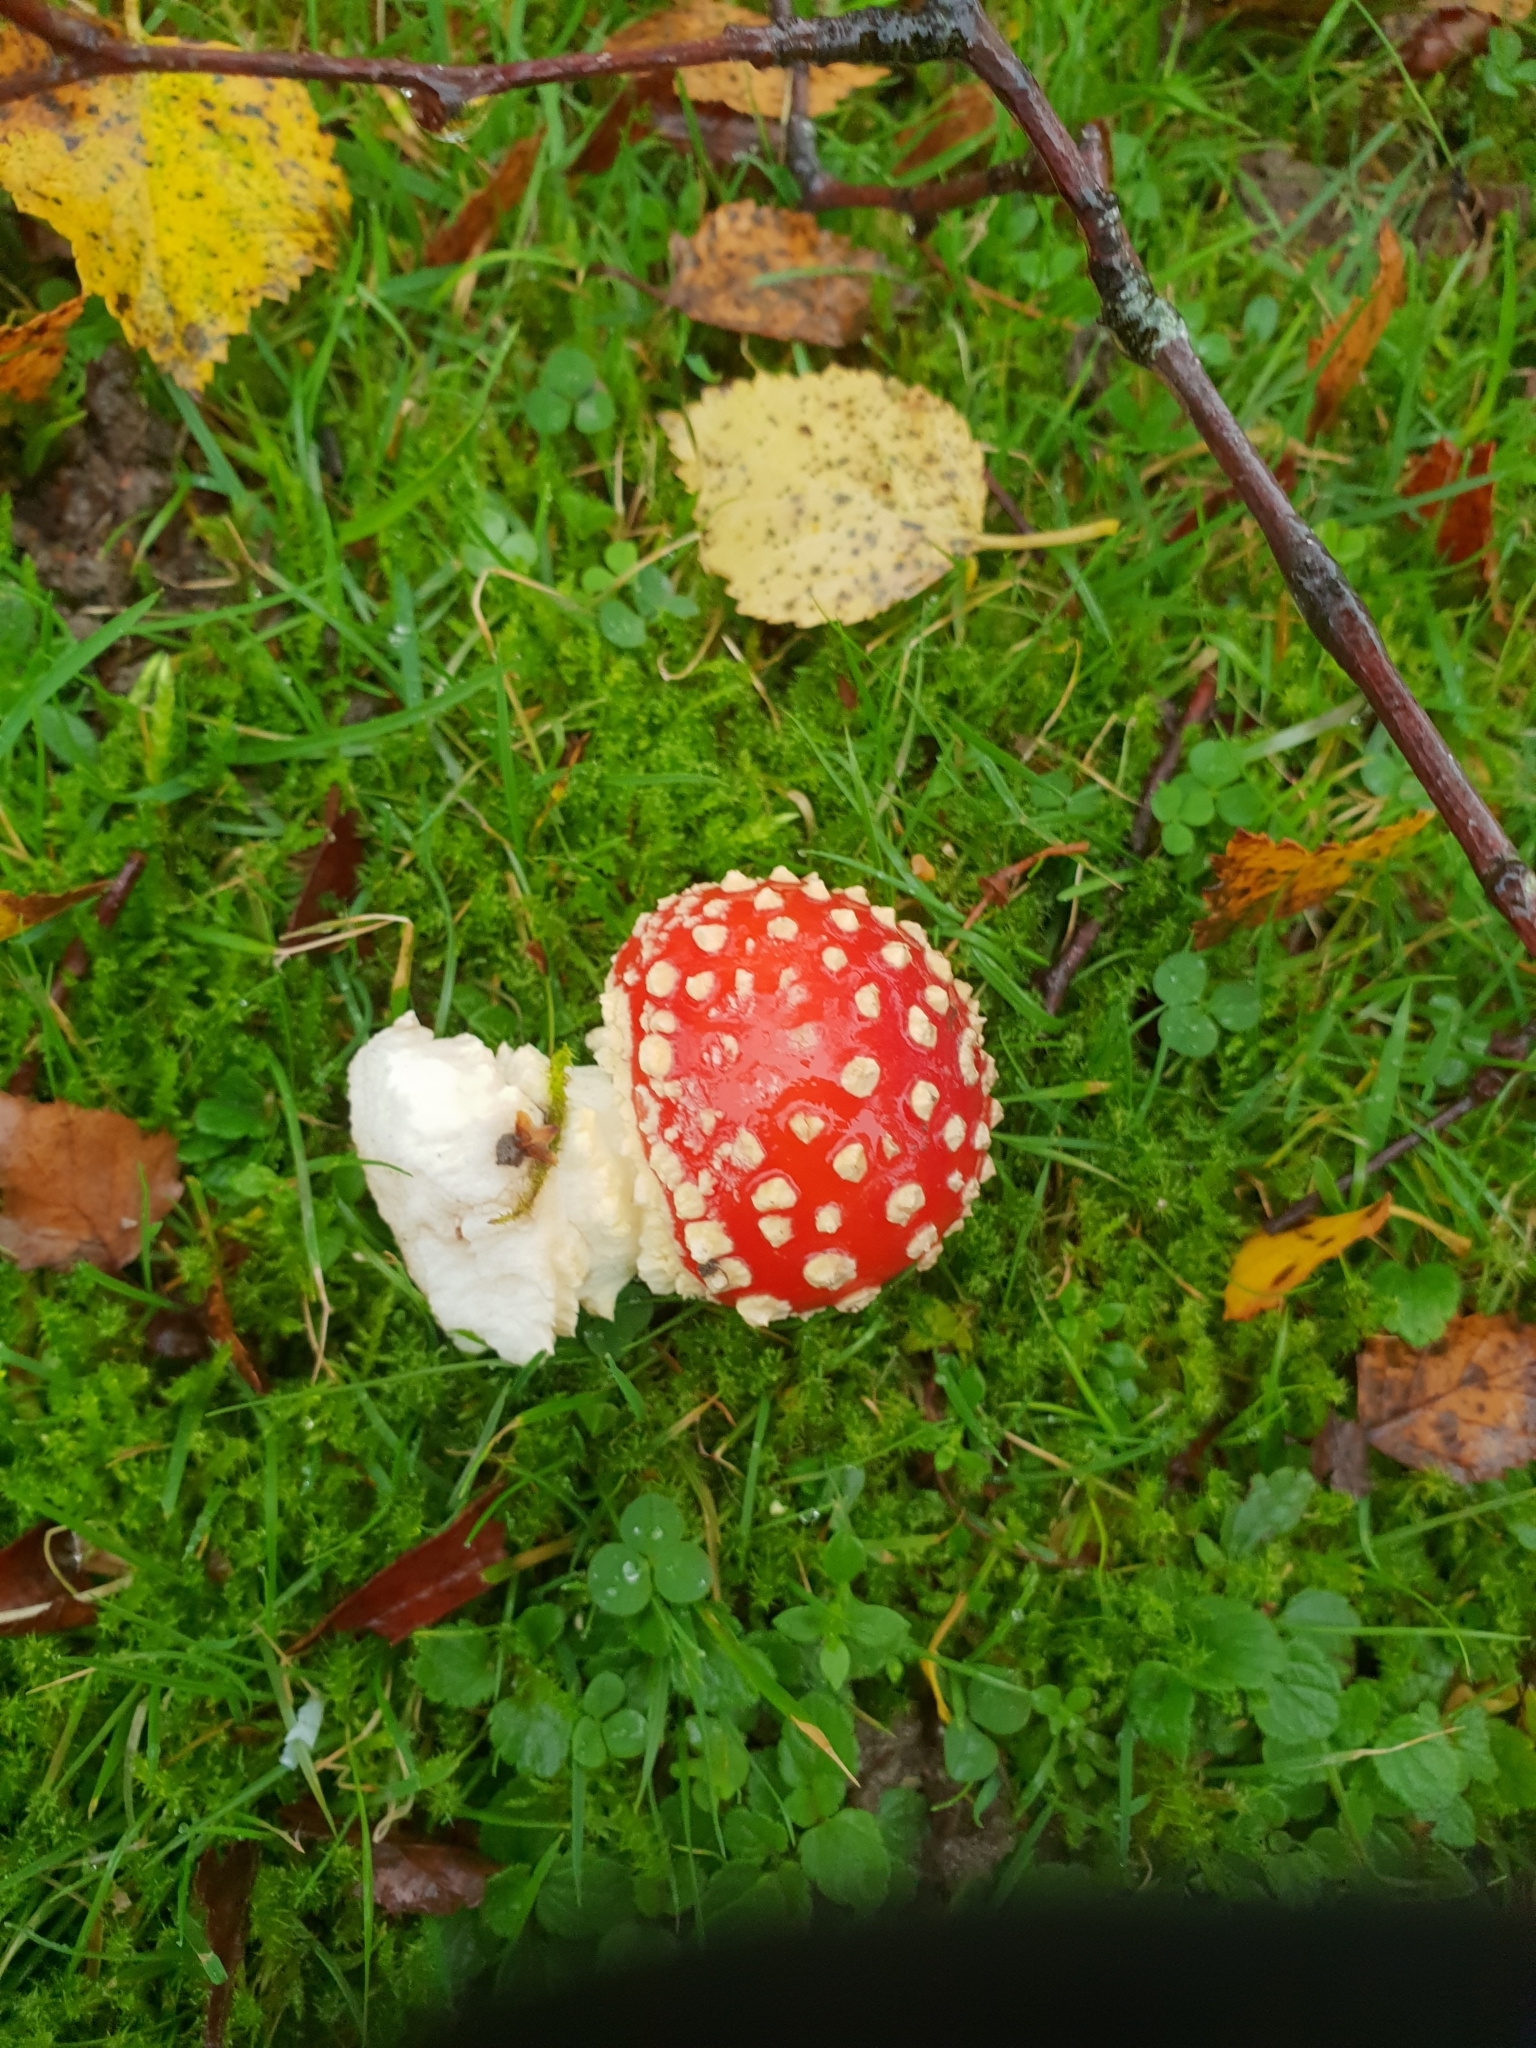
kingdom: Fungi
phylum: Basidiomycota
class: Agaricomycetes
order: Agaricales
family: Amanitaceae
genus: Amanita
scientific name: Amanita muscaria
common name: Fly agaric
